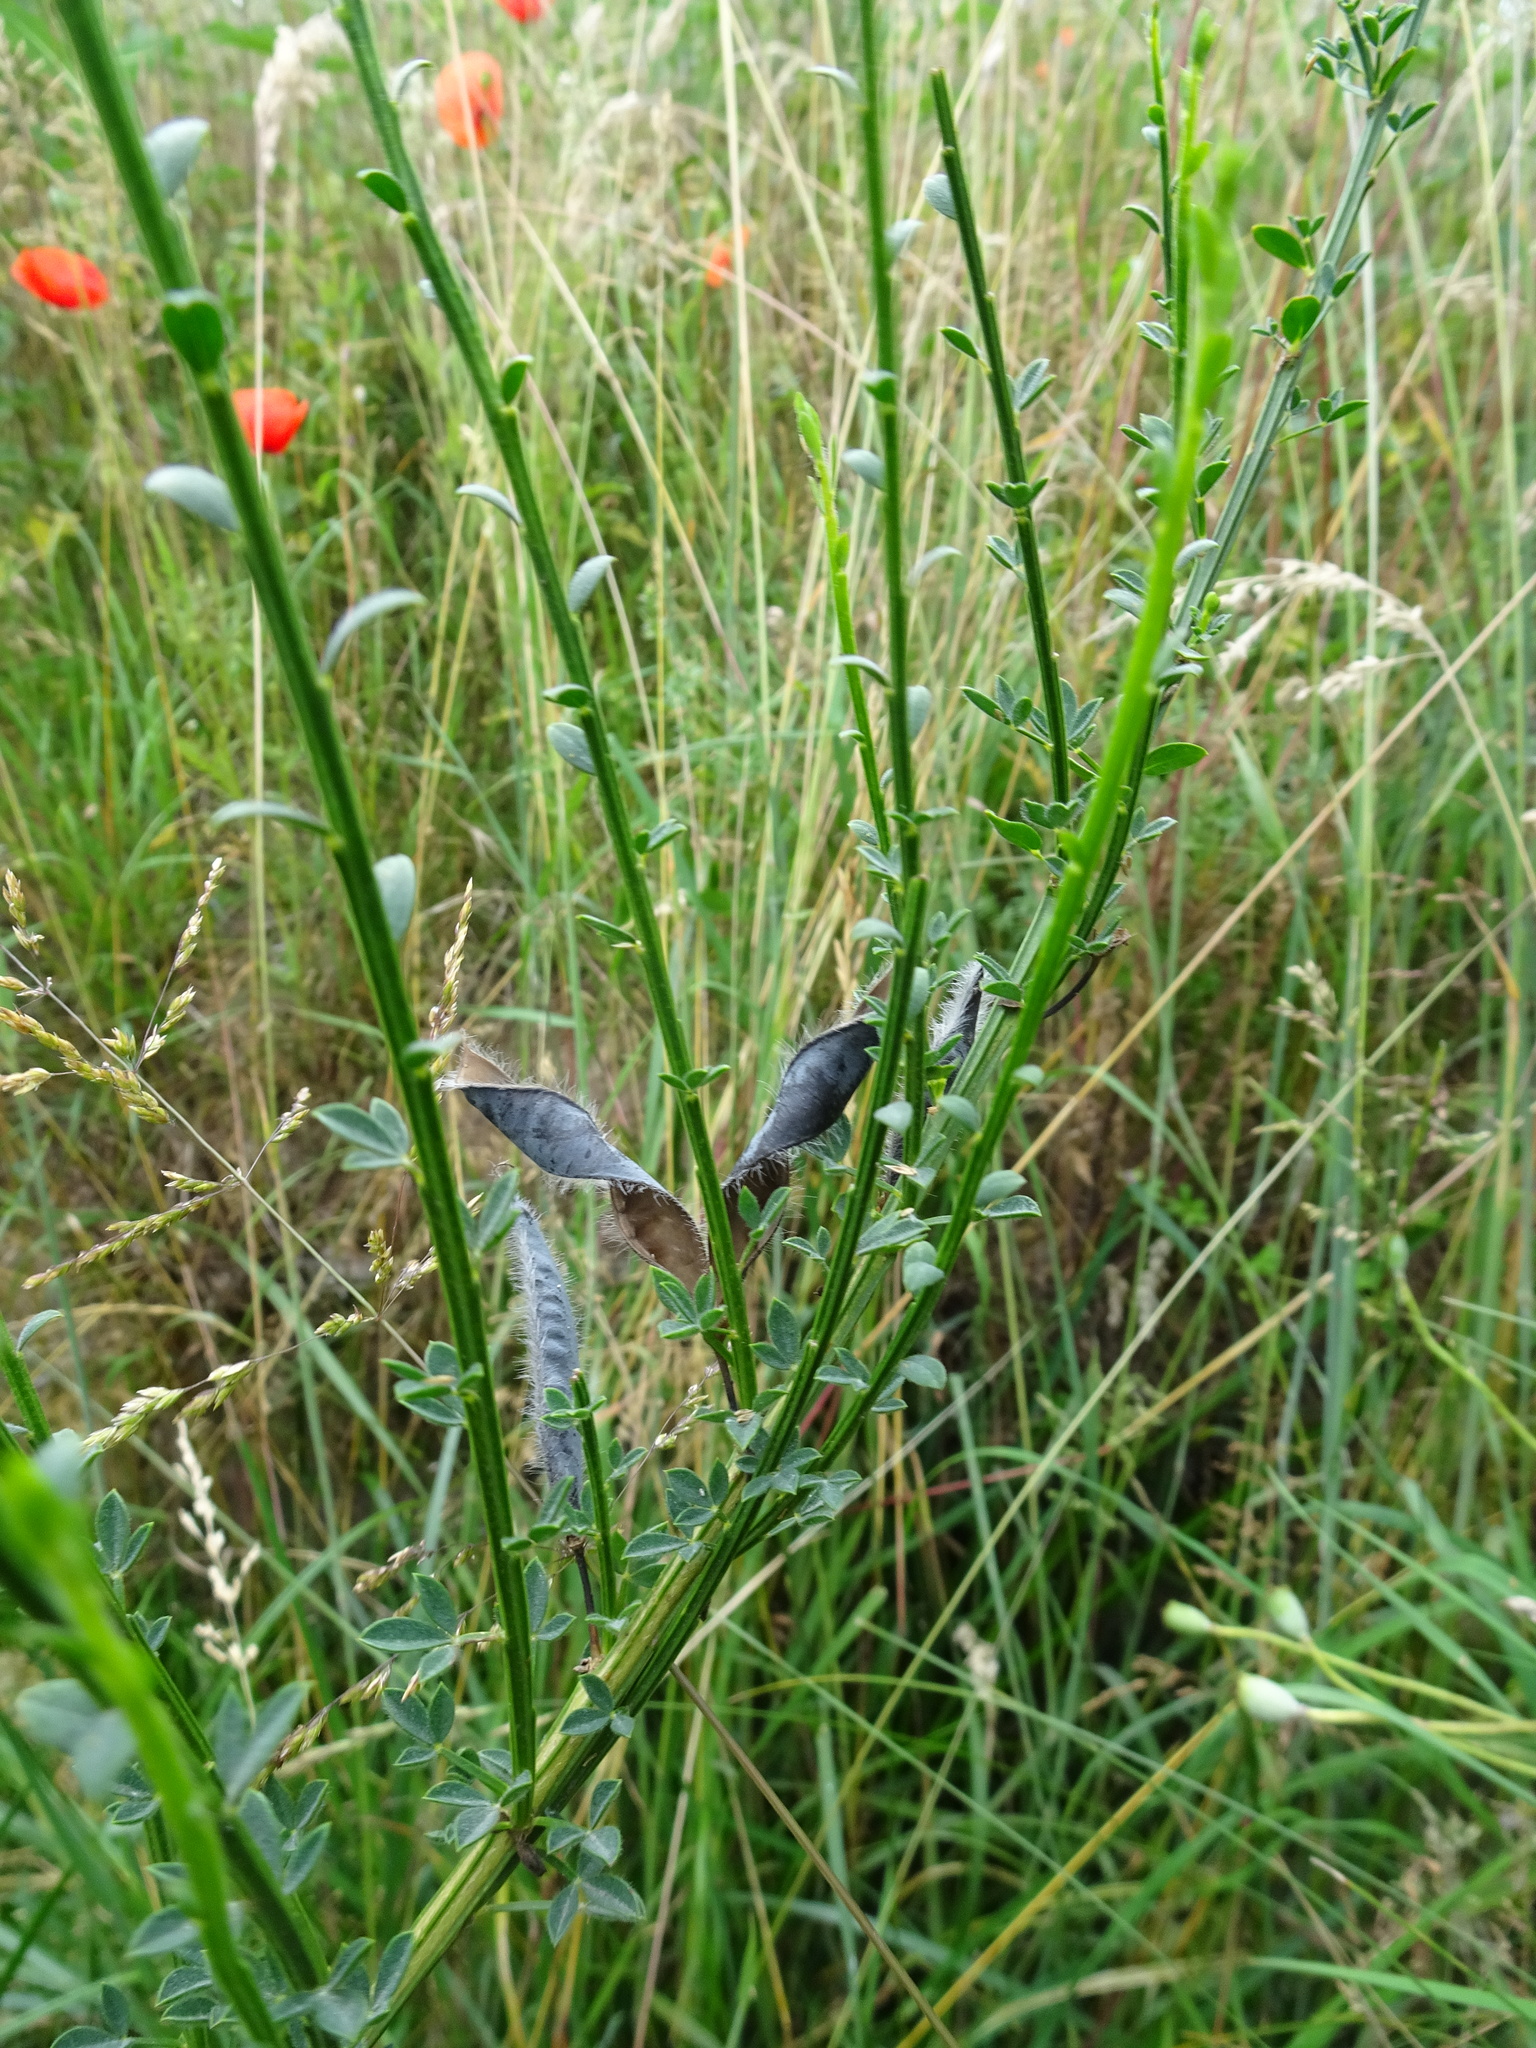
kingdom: Plantae
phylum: Tracheophyta
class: Magnoliopsida
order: Fabales
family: Fabaceae
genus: Cytisus
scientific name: Cytisus scoparius
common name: Scotch broom
